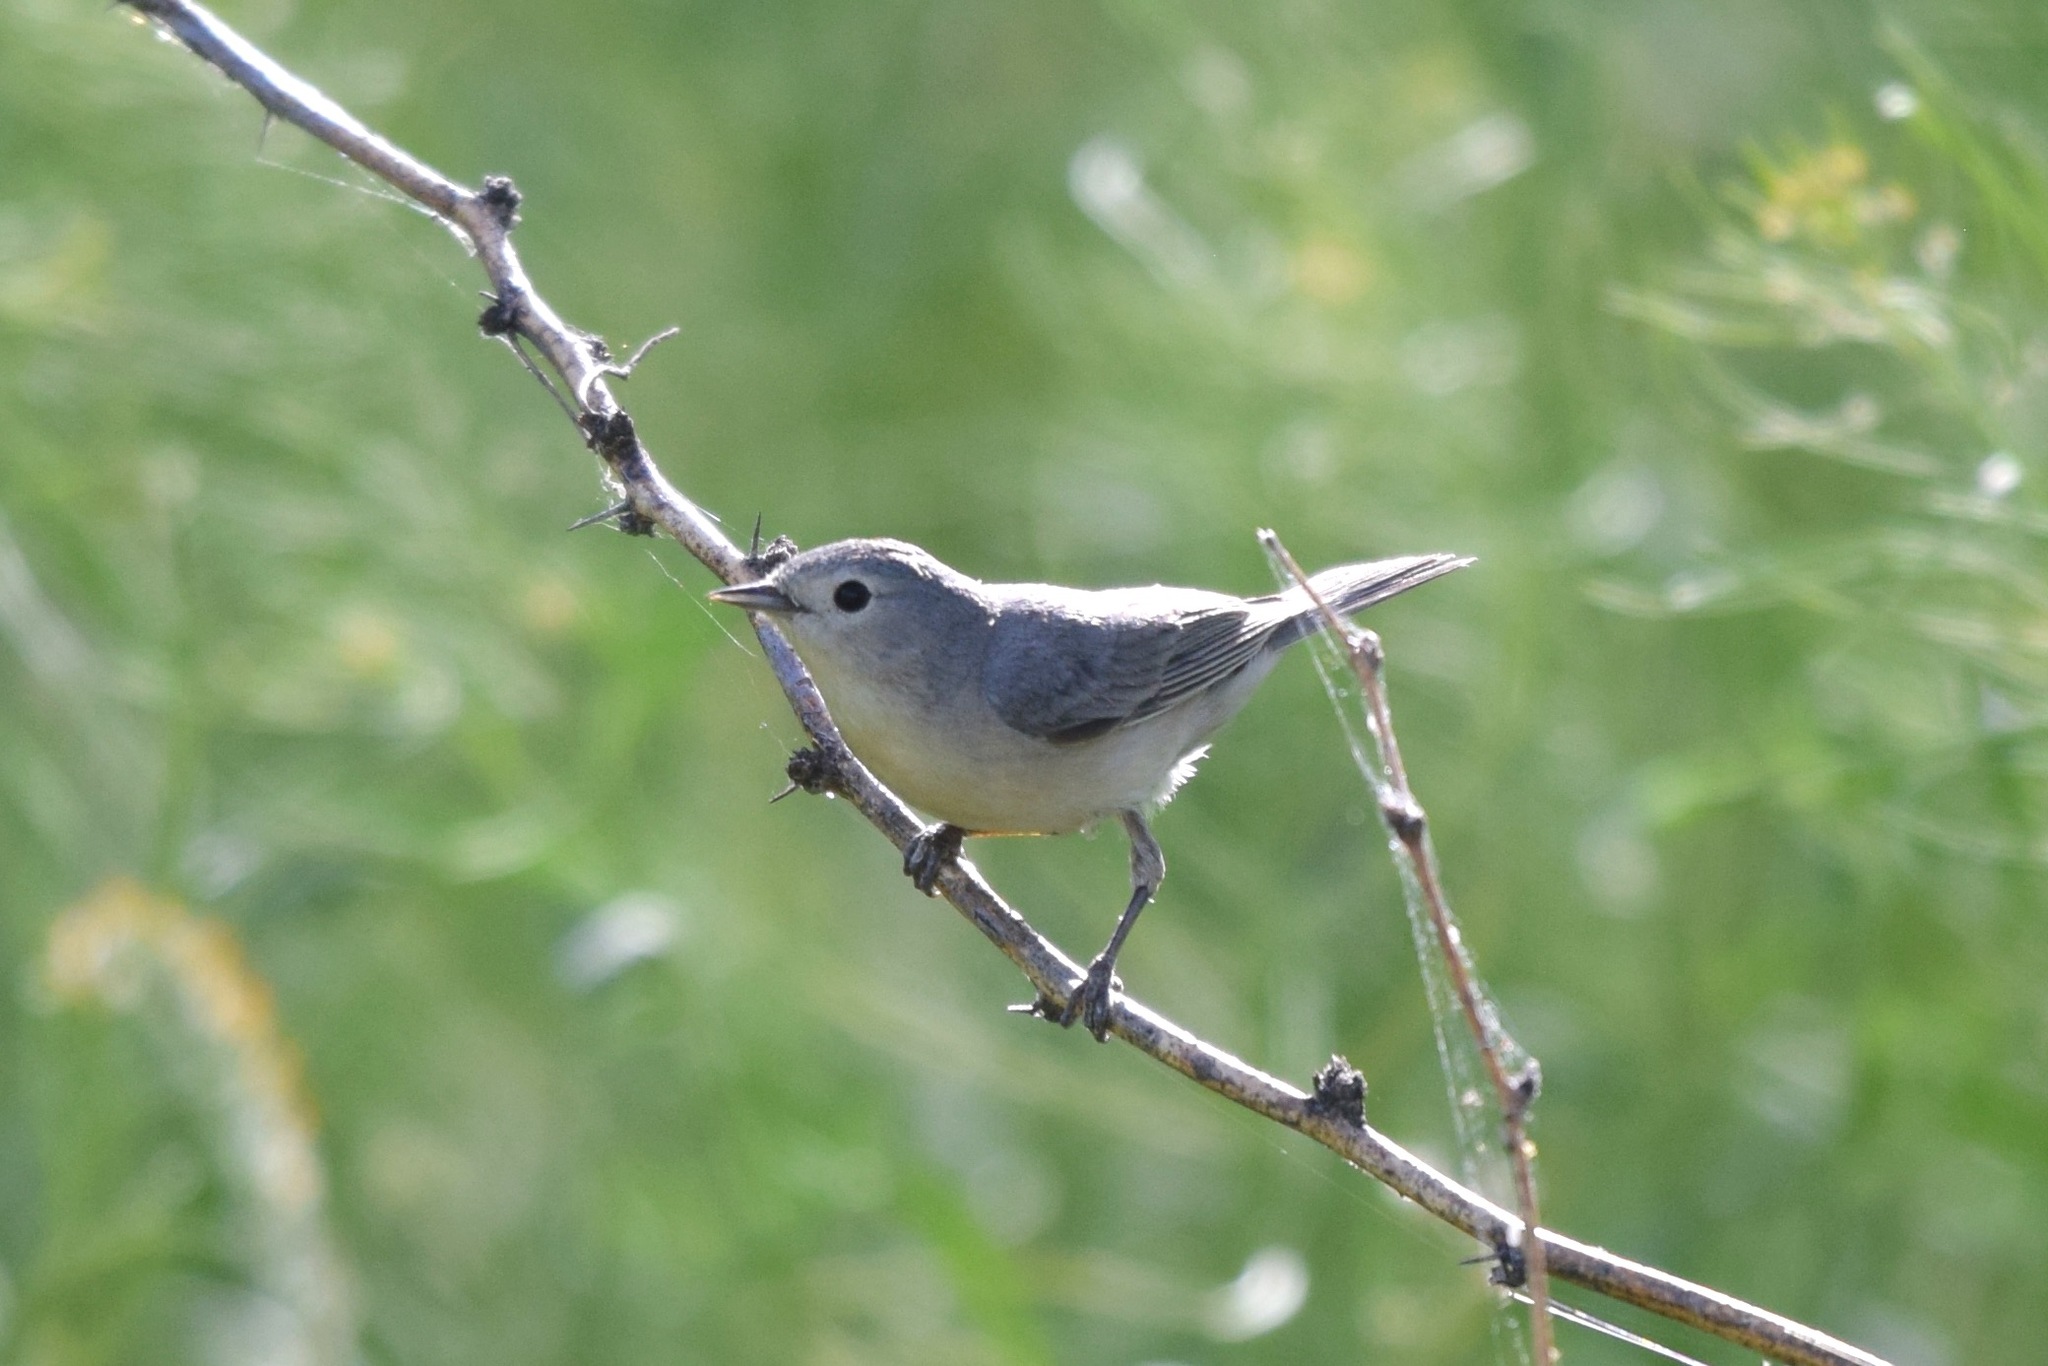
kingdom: Animalia
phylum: Chordata
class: Aves
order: Passeriformes
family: Parulidae
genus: Leiothlypis
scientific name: Leiothlypis luciae
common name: Lucy's warbler
